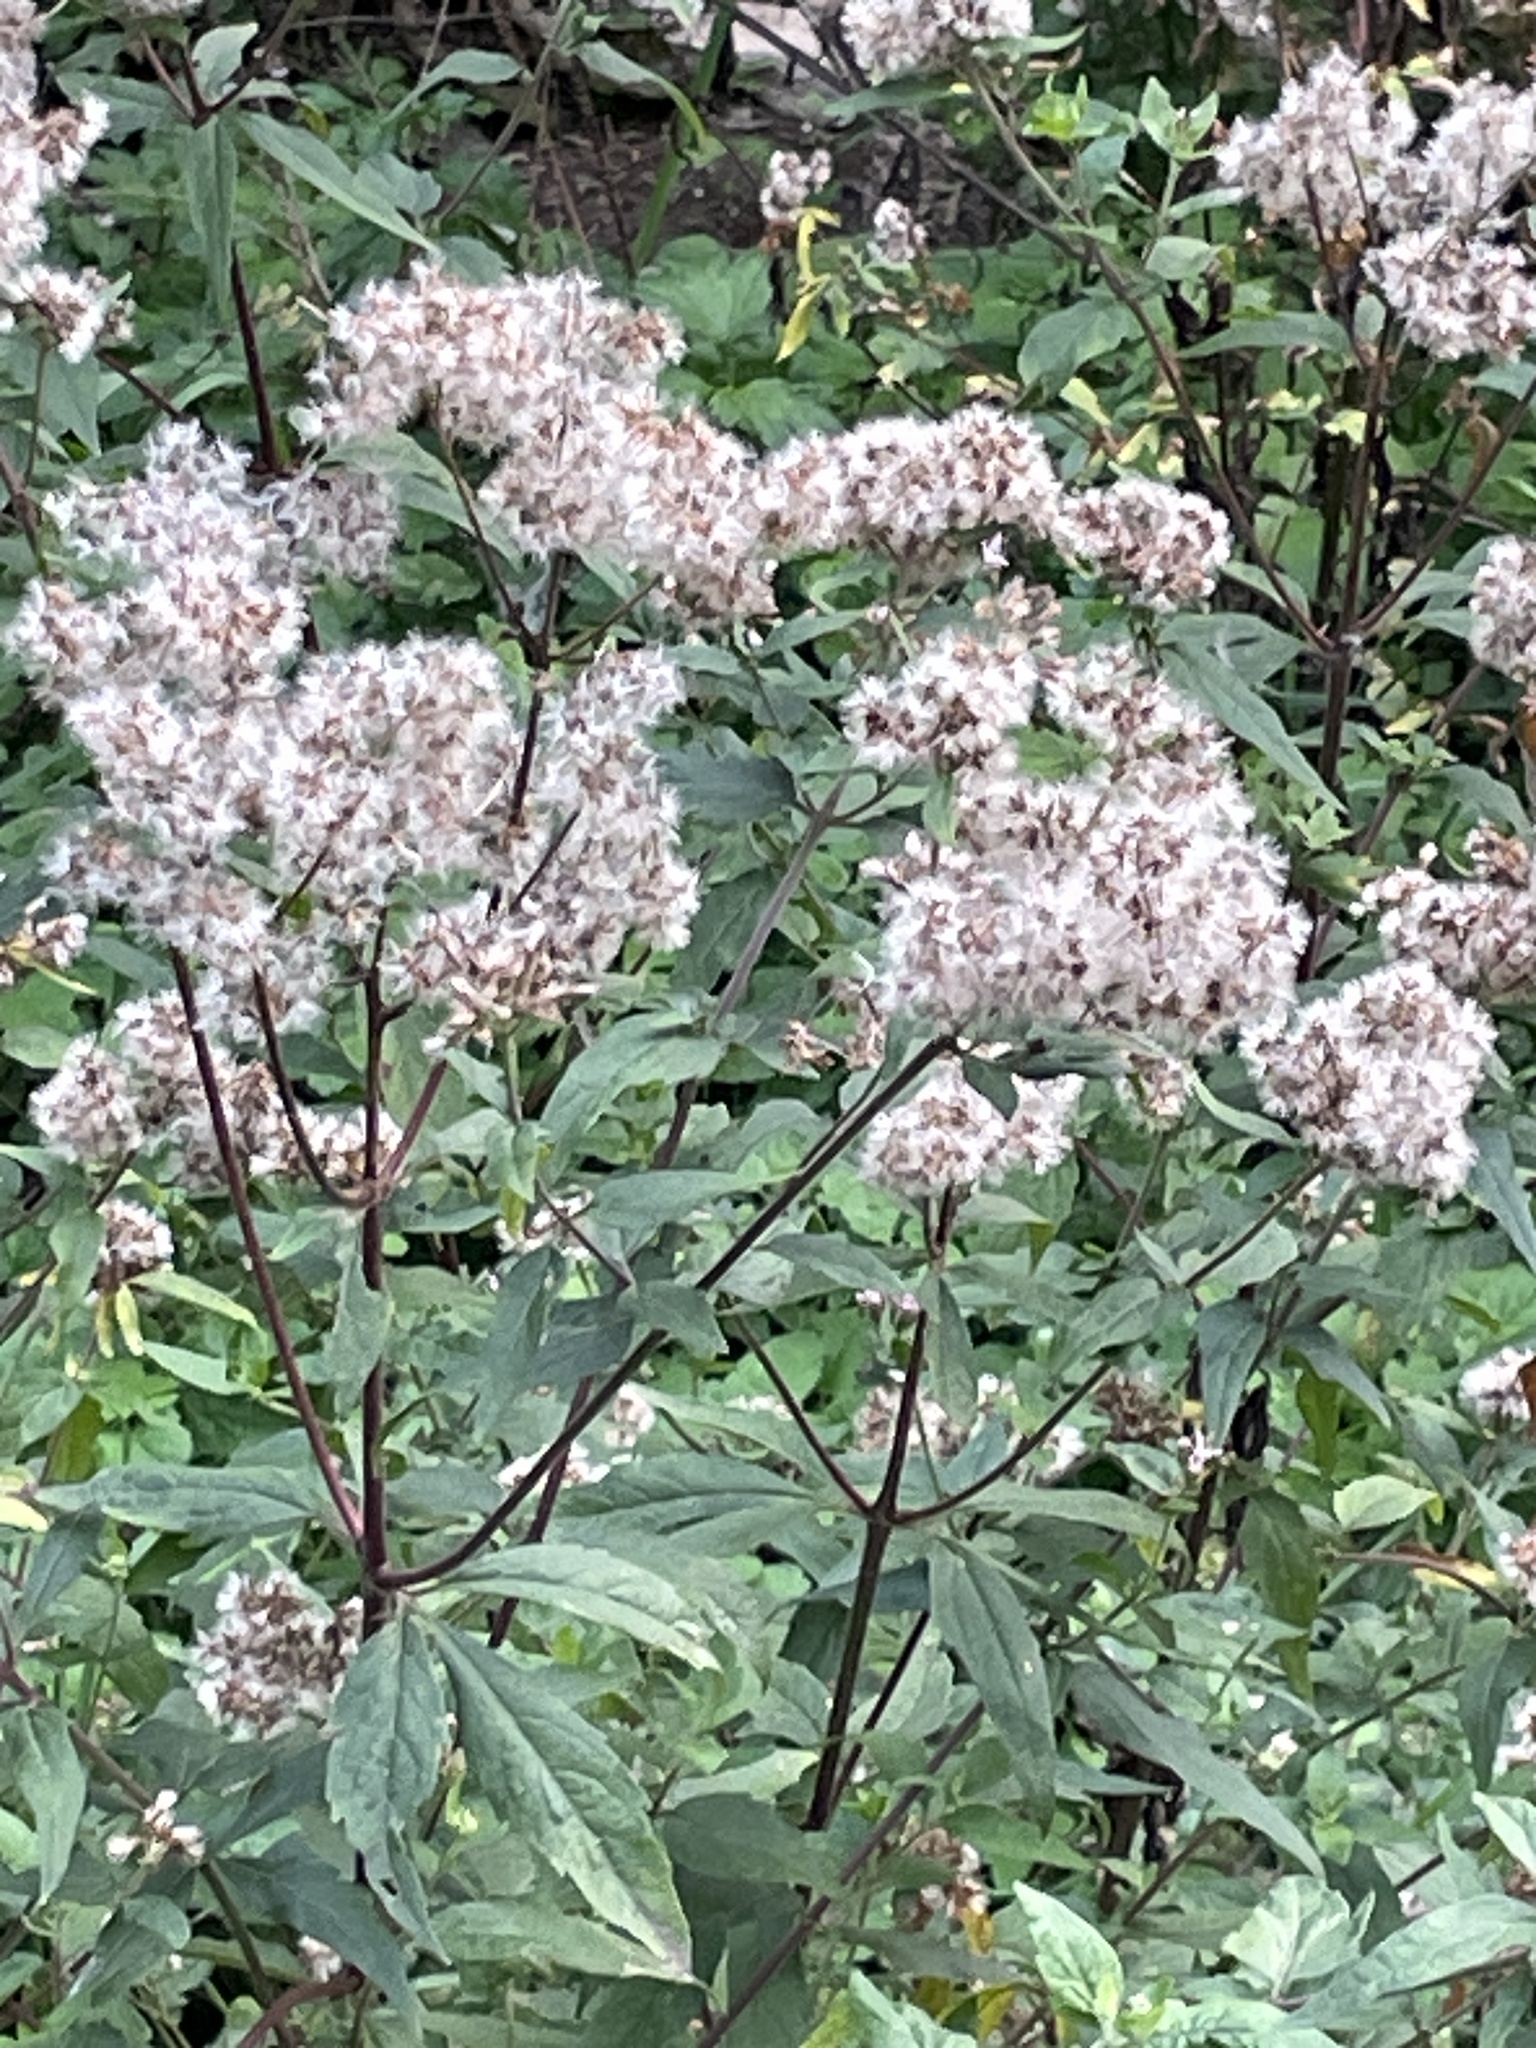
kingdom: Plantae
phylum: Tracheophyta
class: Magnoliopsida
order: Asterales
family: Asteraceae
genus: Eupatorium
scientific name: Eupatorium cannabinum
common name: Hemp-agrimony
